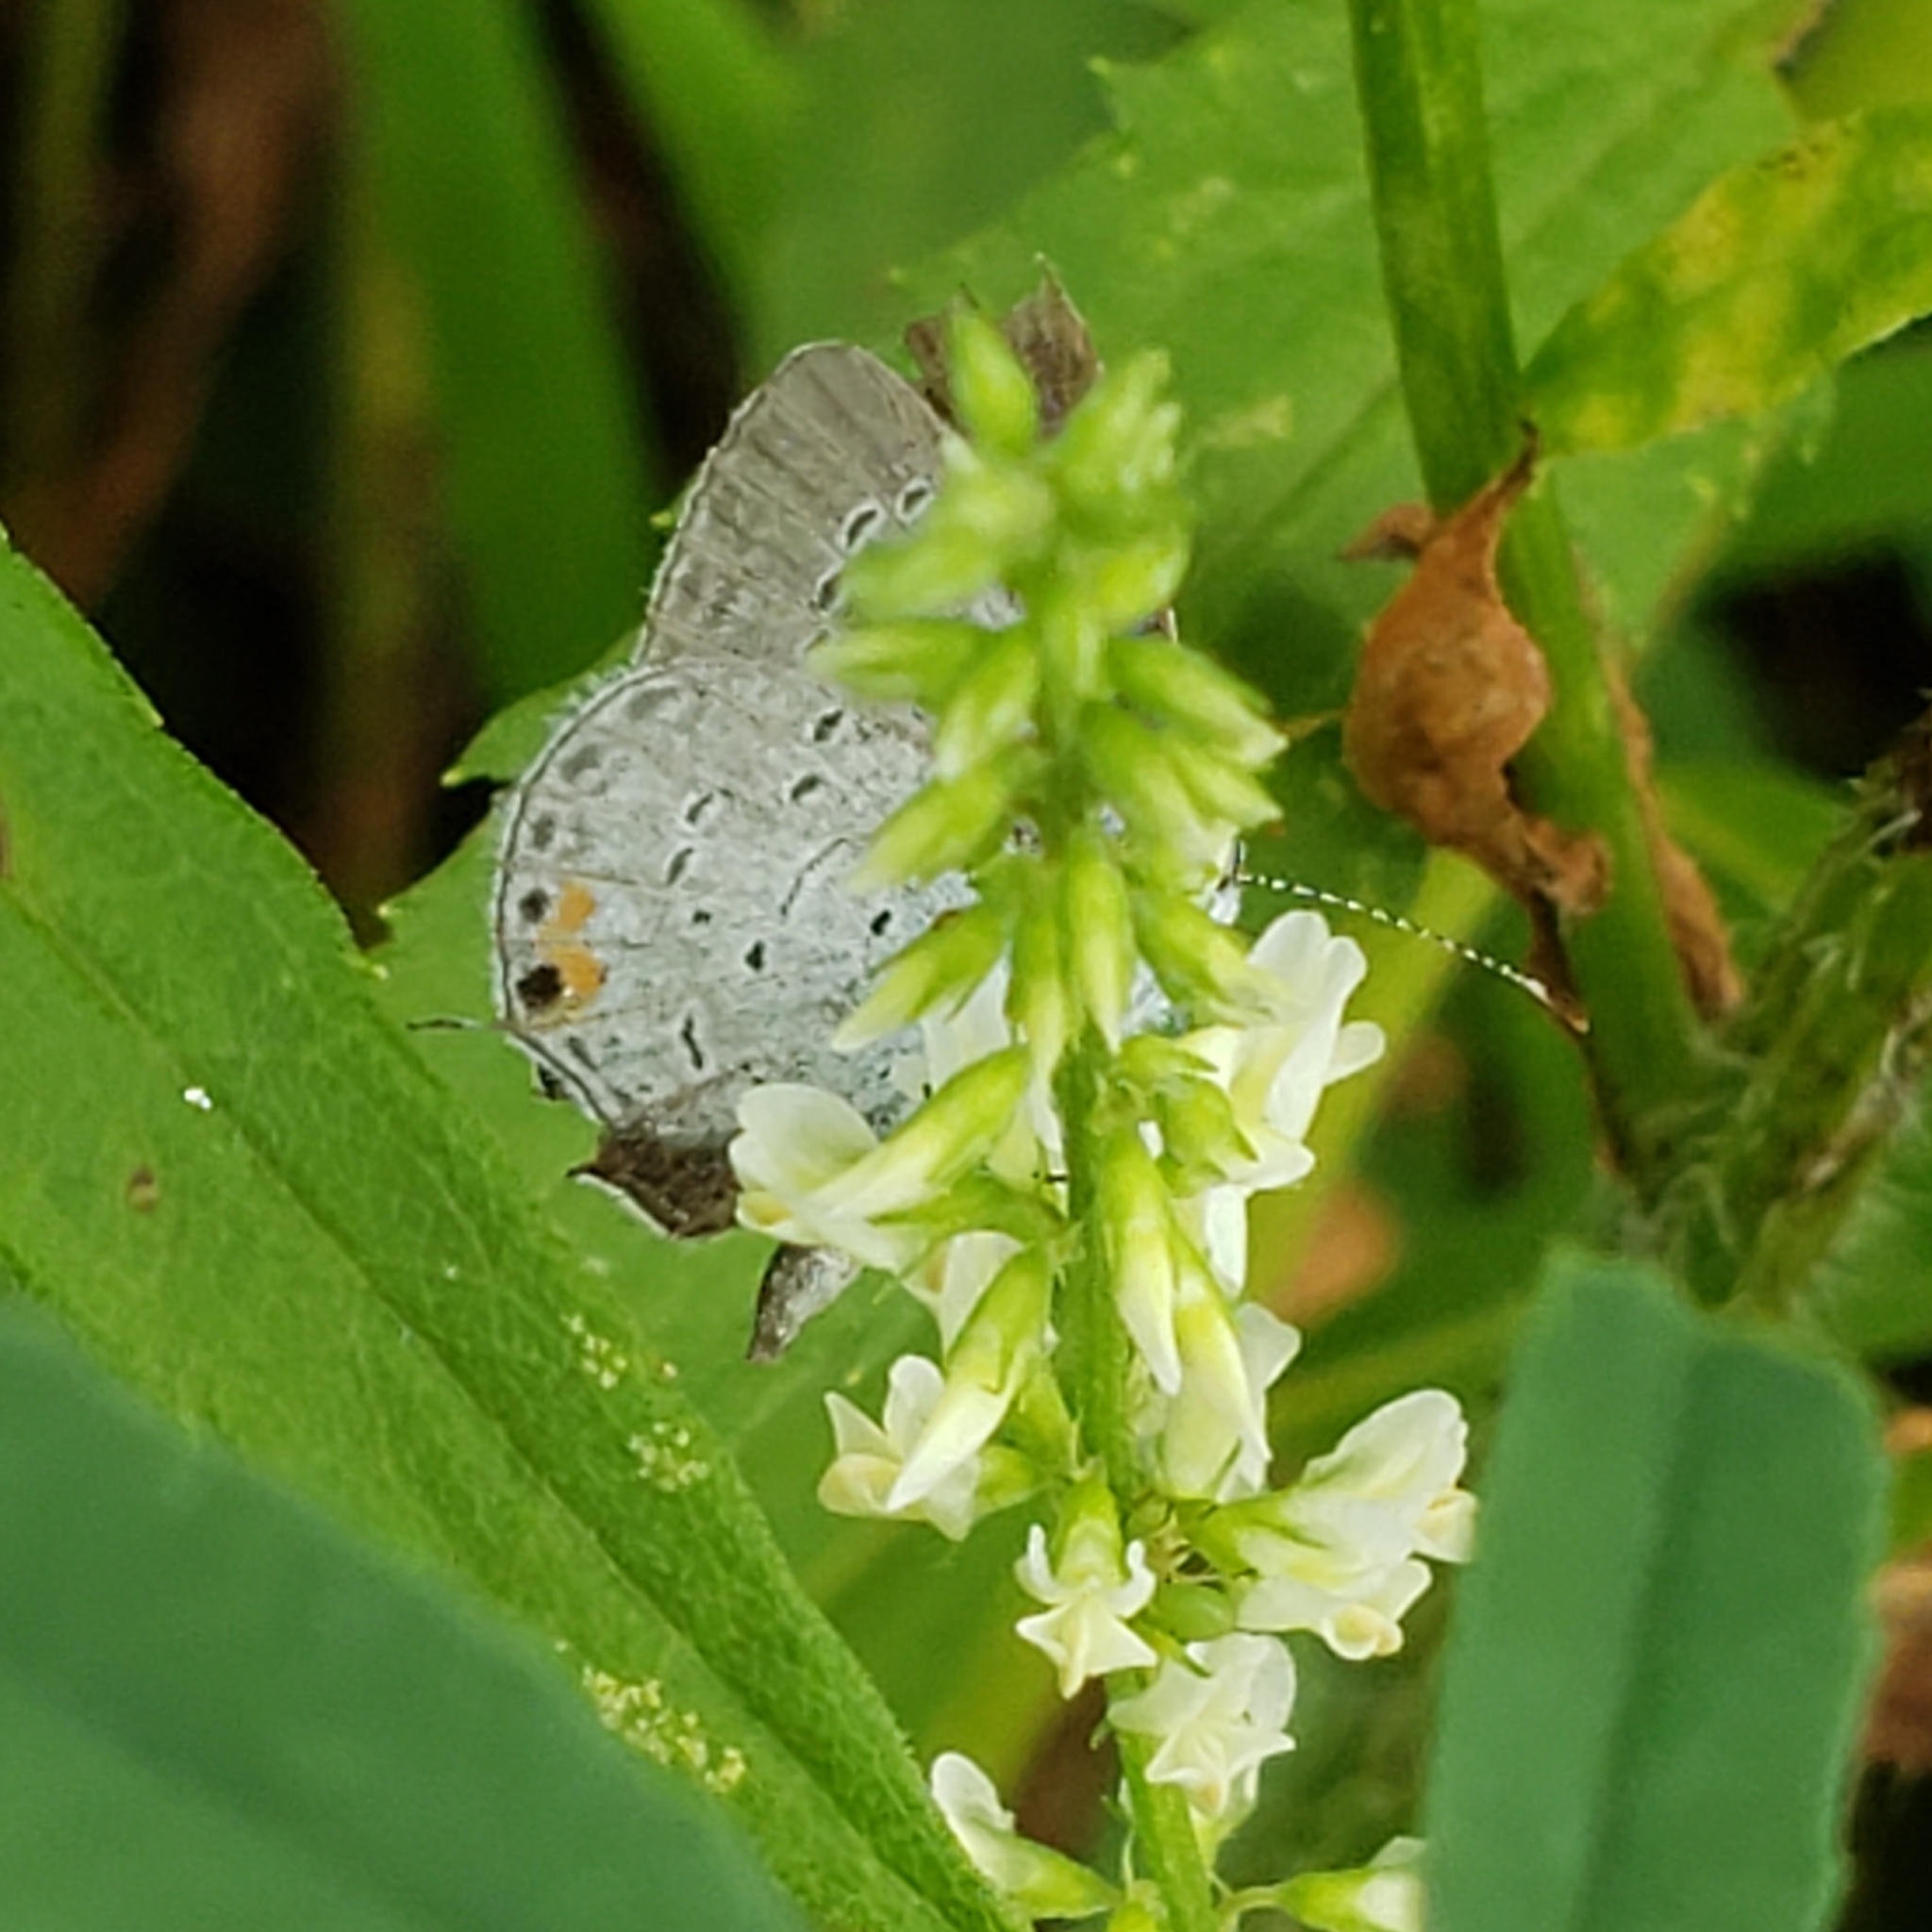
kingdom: Animalia
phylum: Arthropoda
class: Insecta
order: Lepidoptera
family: Lycaenidae
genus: Elkalyce
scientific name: Elkalyce comyntas
